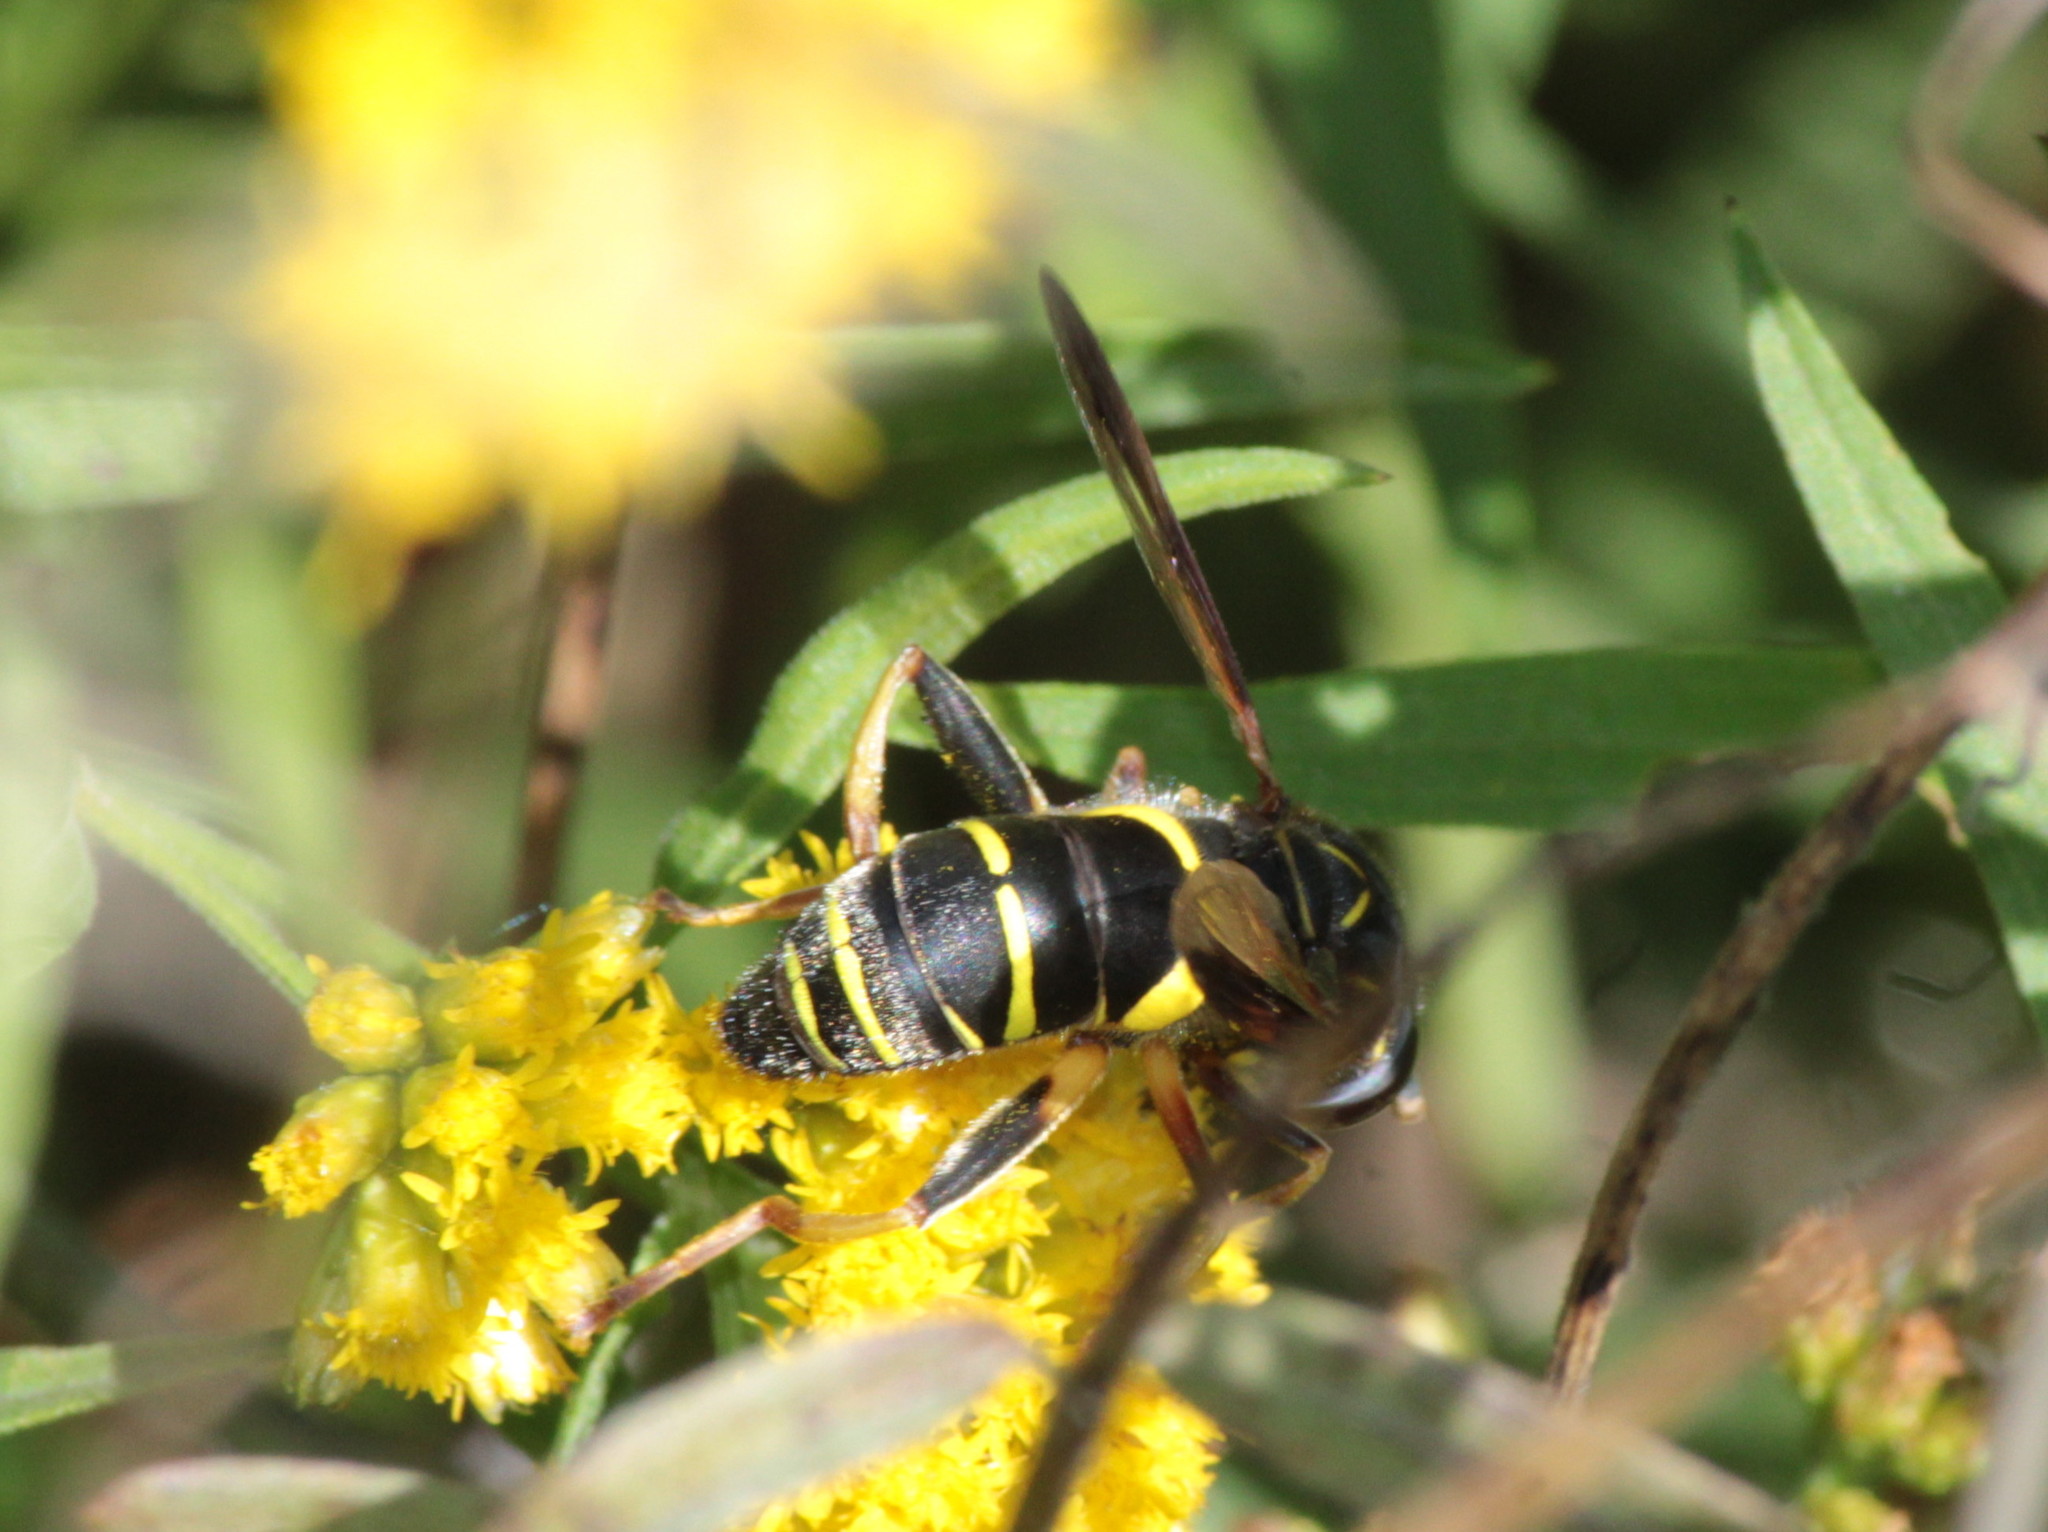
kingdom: Animalia
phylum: Arthropoda
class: Insecta
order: Diptera
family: Syrphidae
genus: Spilomyia
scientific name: Spilomyia sayi
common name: Four-lined hornet fly
